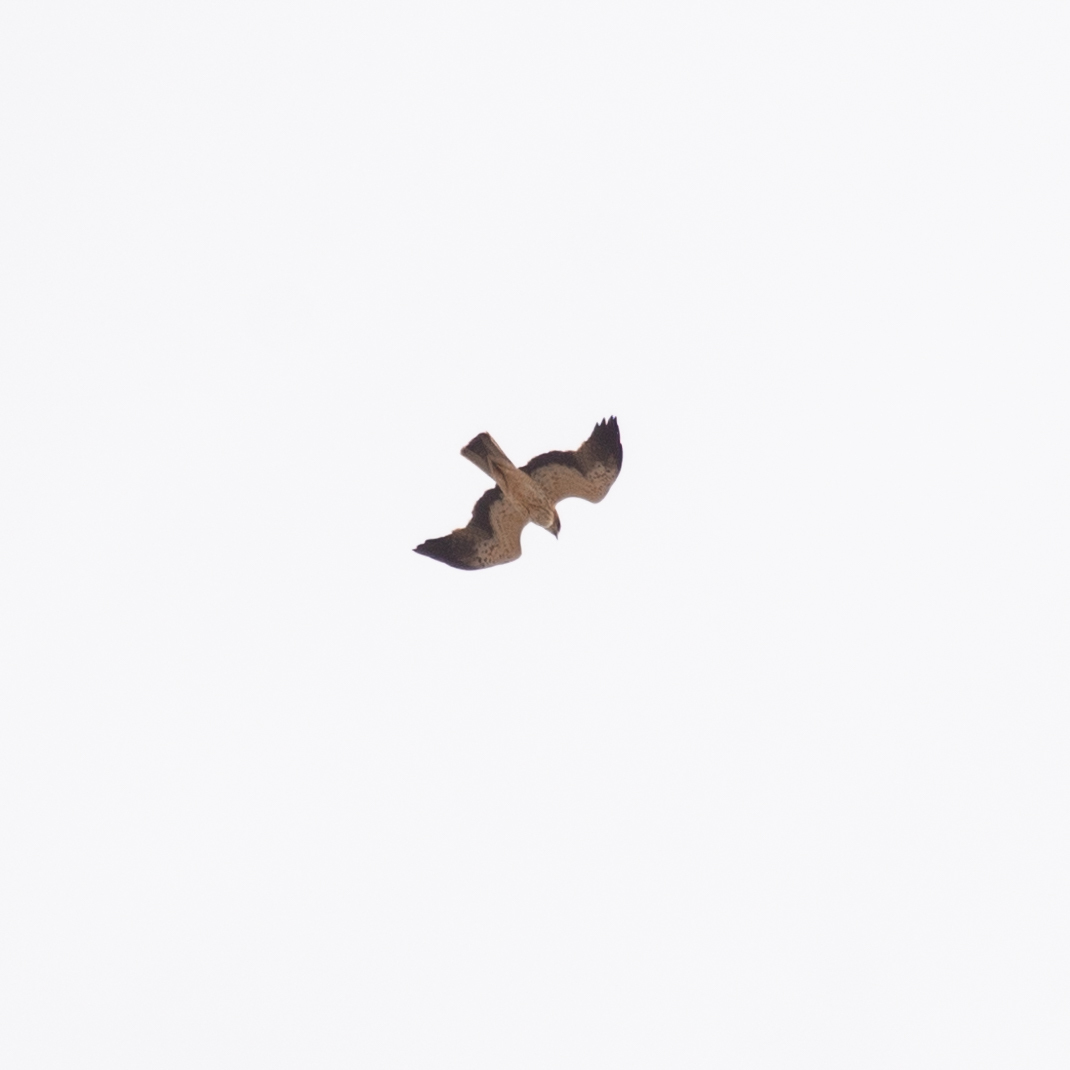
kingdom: Animalia
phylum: Chordata
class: Aves
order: Accipitriformes
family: Accipitridae
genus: Hieraaetus
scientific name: Hieraaetus pennatus
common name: Booted eagle
